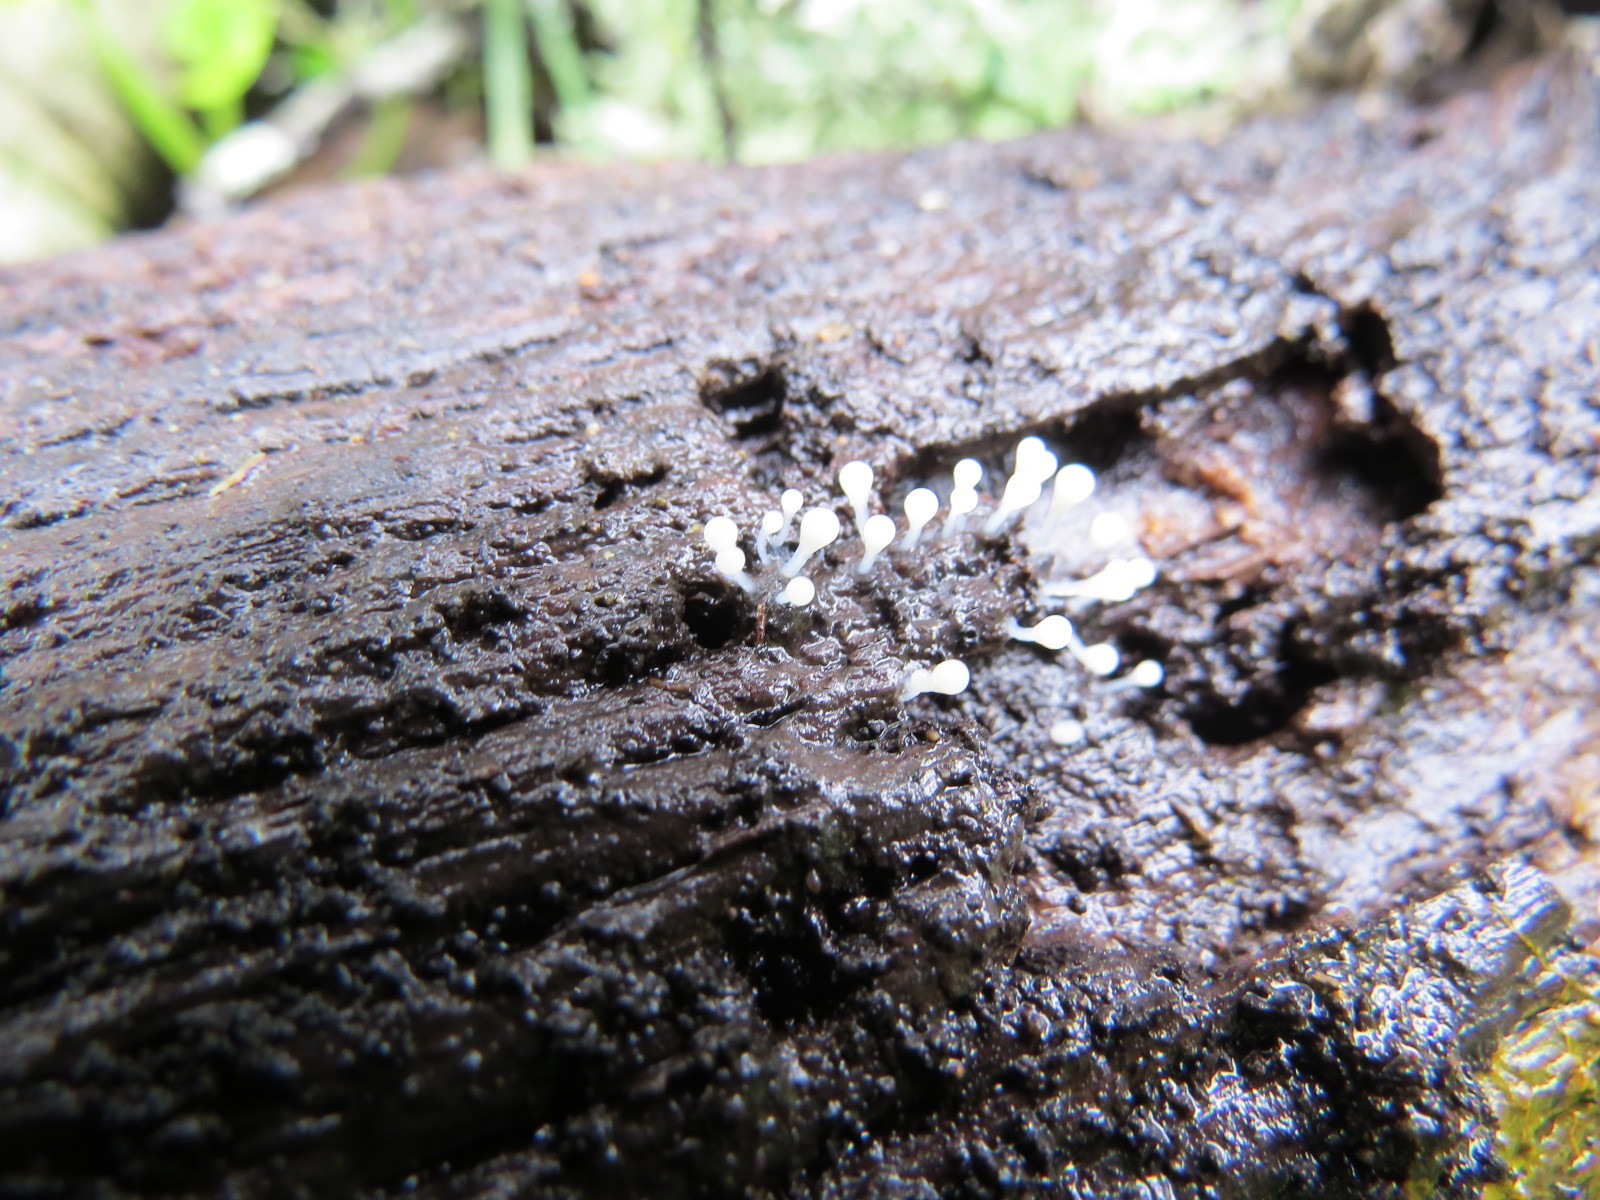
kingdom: Protozoa
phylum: Mycetozoa
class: Myxomycetes
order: Trichiales
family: Arcyriaceae
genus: Hemitrichia
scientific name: Hemitrichia calyculata
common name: Push pin slime mold
